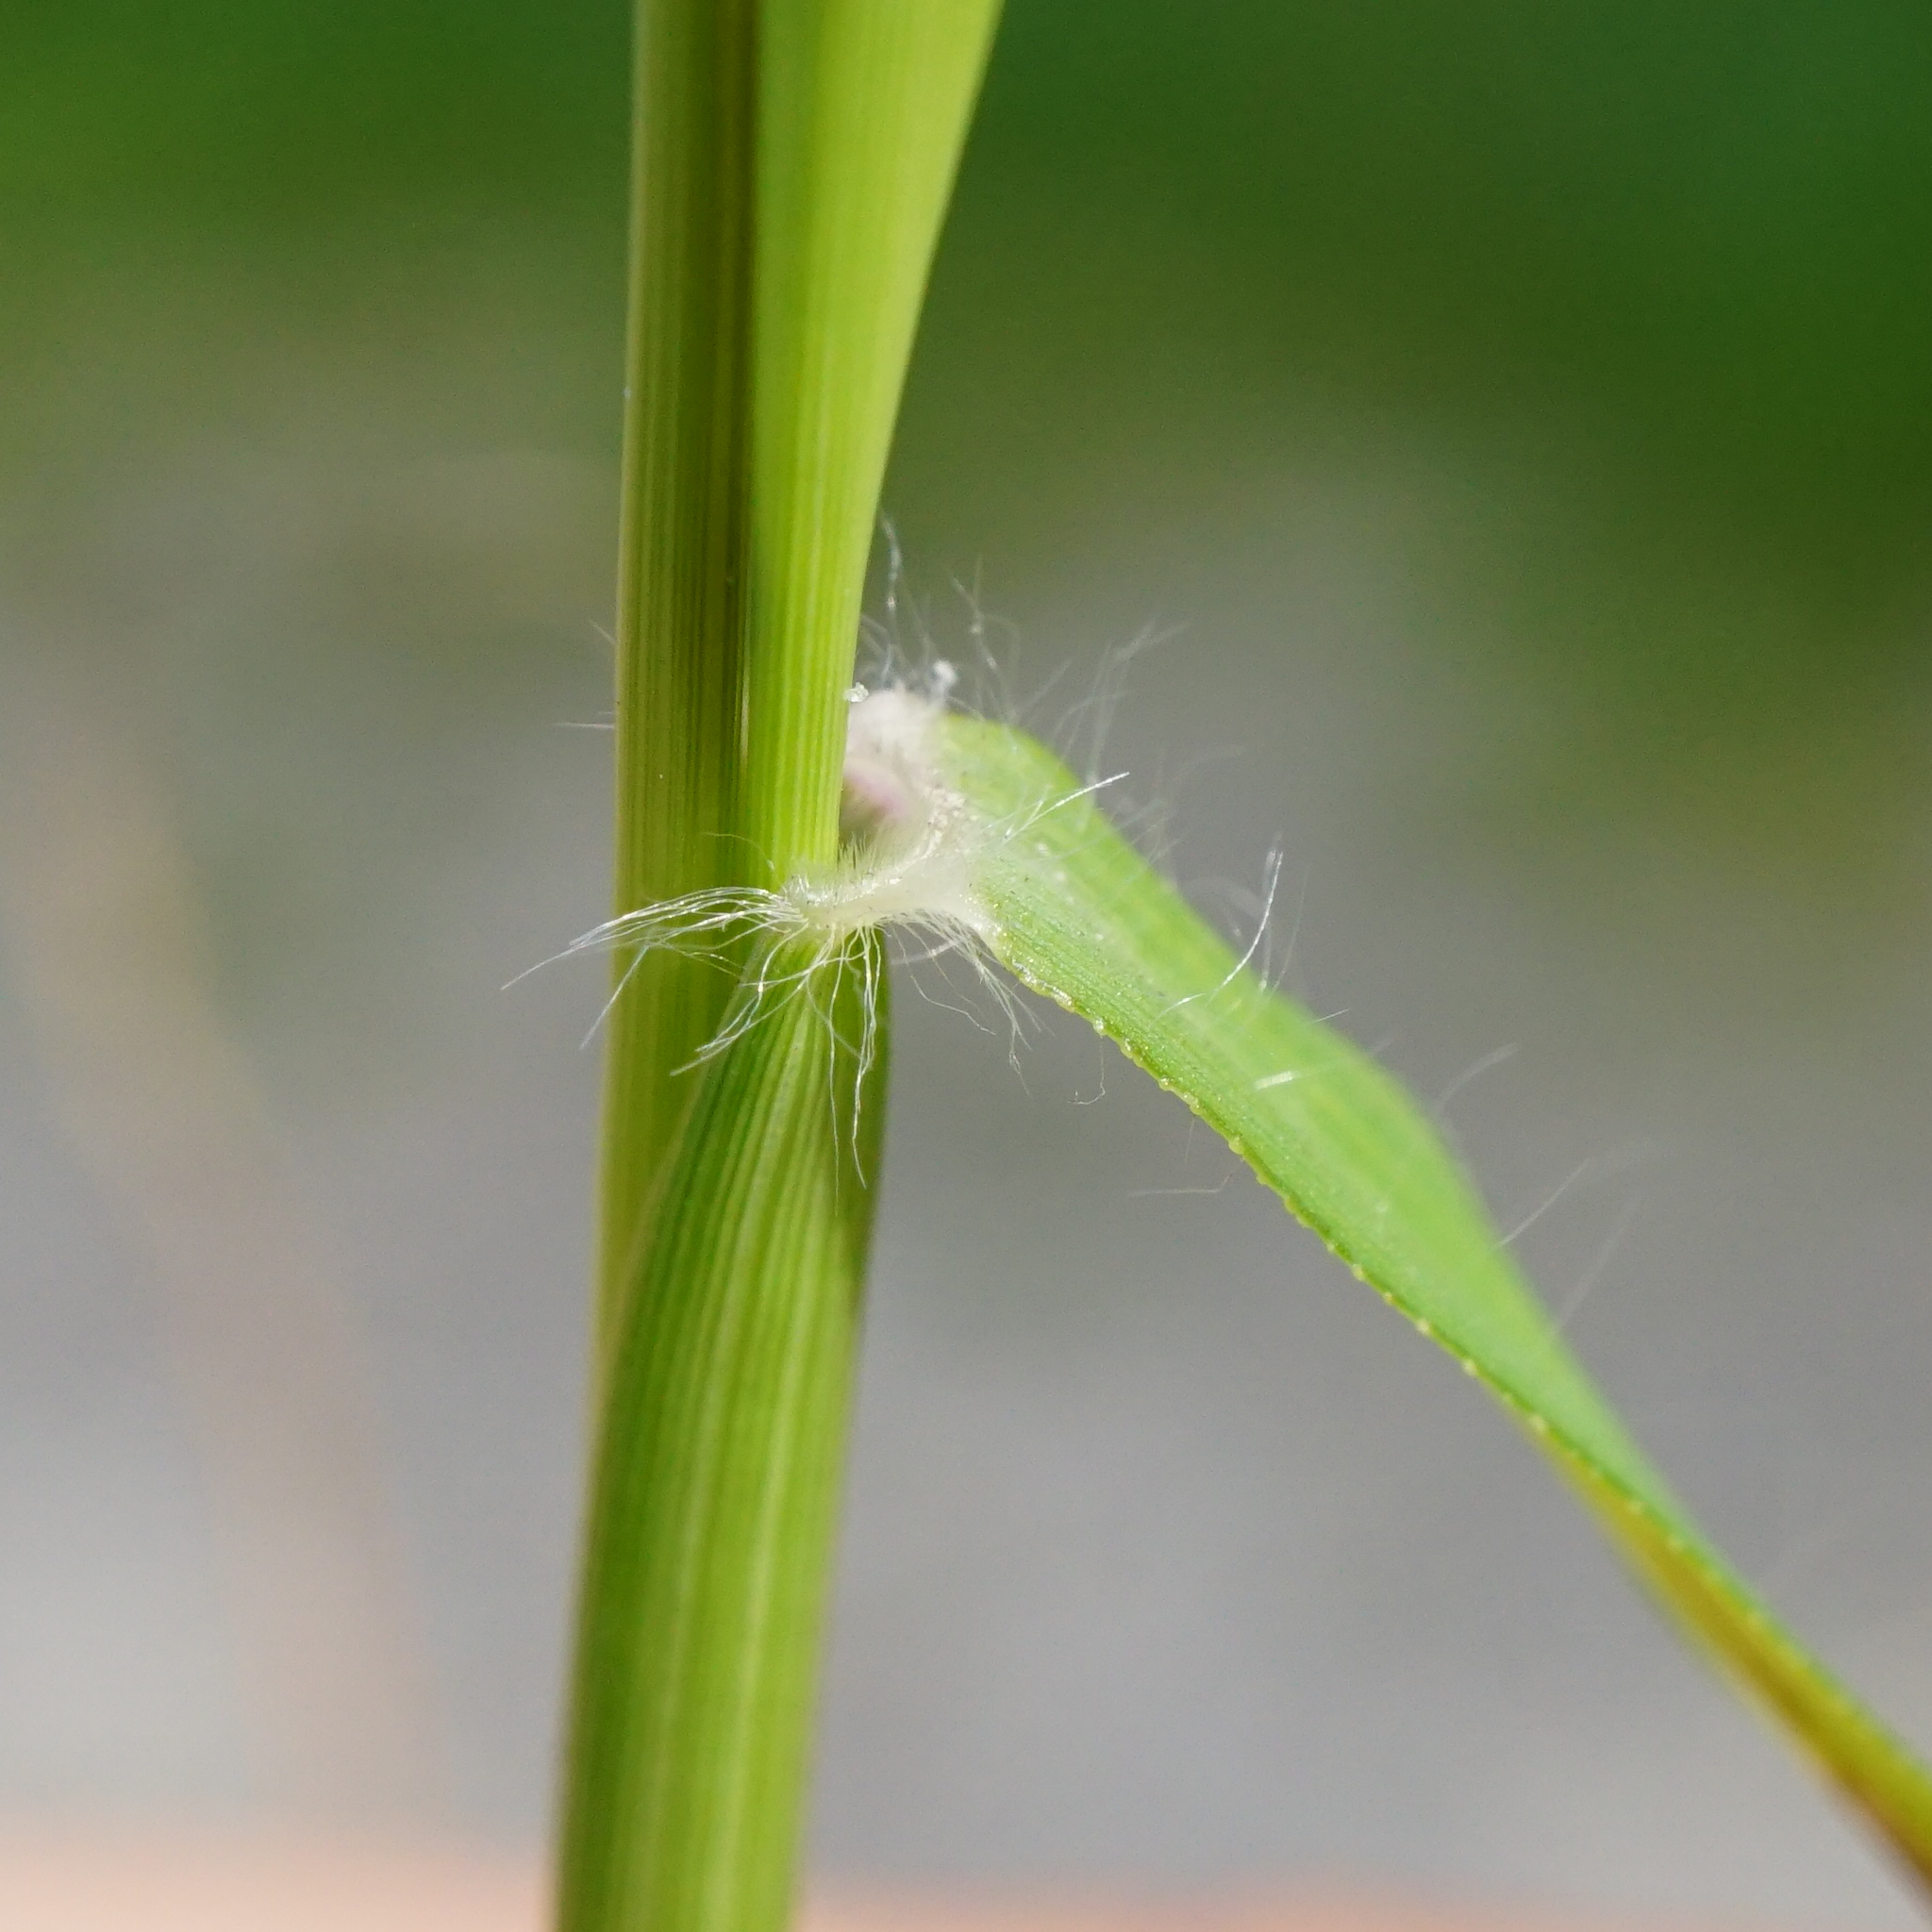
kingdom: Plantae
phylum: Tracheophyta
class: Liliopsida
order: Poales
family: Poaceae
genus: Eragrostis
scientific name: Eragrostis minor
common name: Small love-grass
